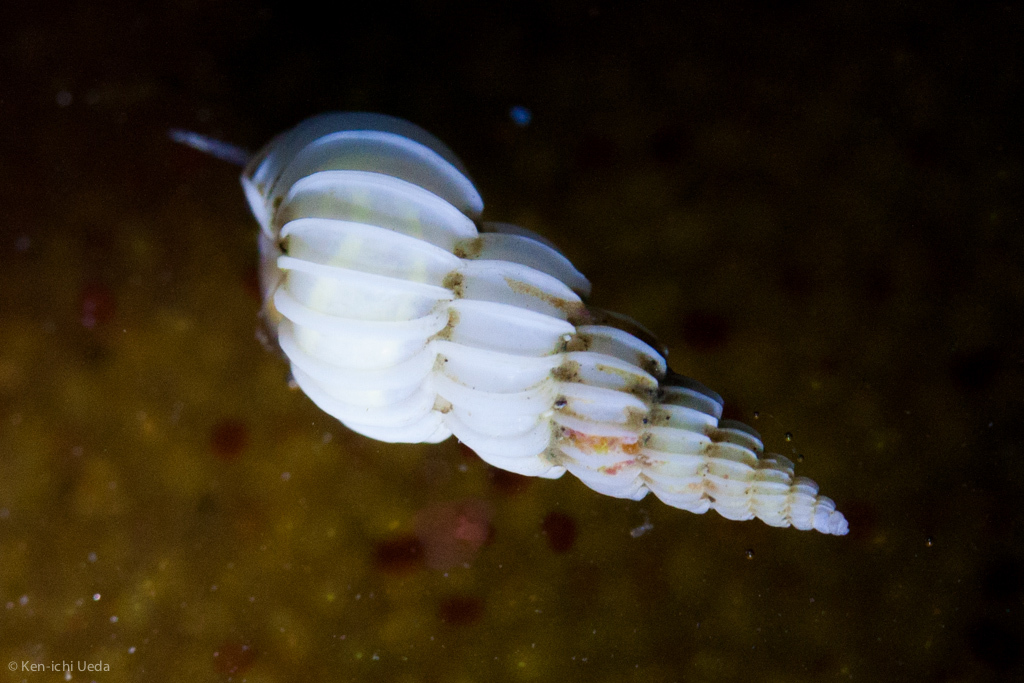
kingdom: Animalia
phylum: Mollusca
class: Gastropoda
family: Epitoniidae
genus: Epitonium
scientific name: Epitonium indianorum
